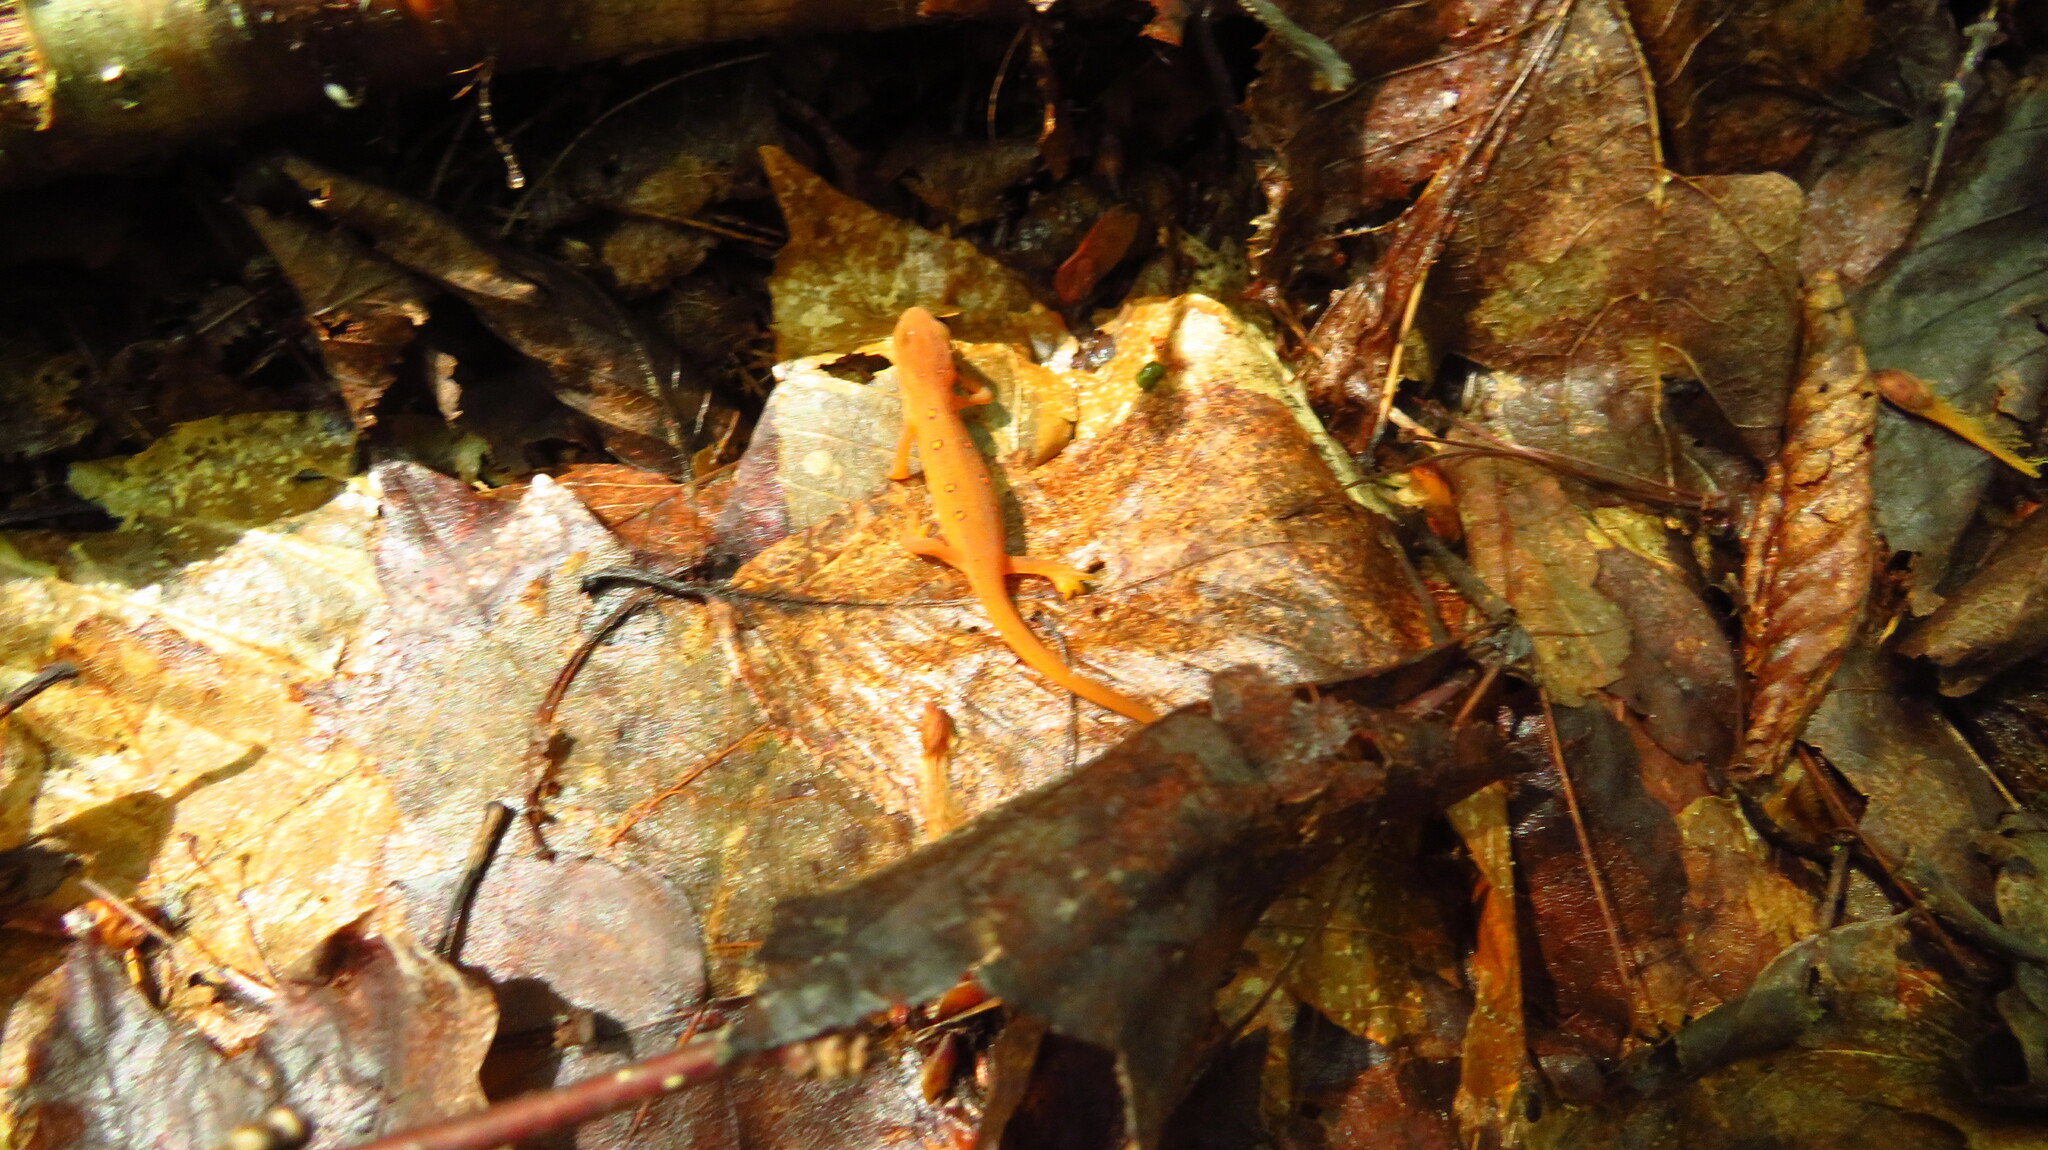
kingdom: Animalia
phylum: Chordata
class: Amphibia
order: Caudata
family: Salamandridae
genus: Notophthalmus
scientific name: Notophthalmus viridescens
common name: Eastern newt
